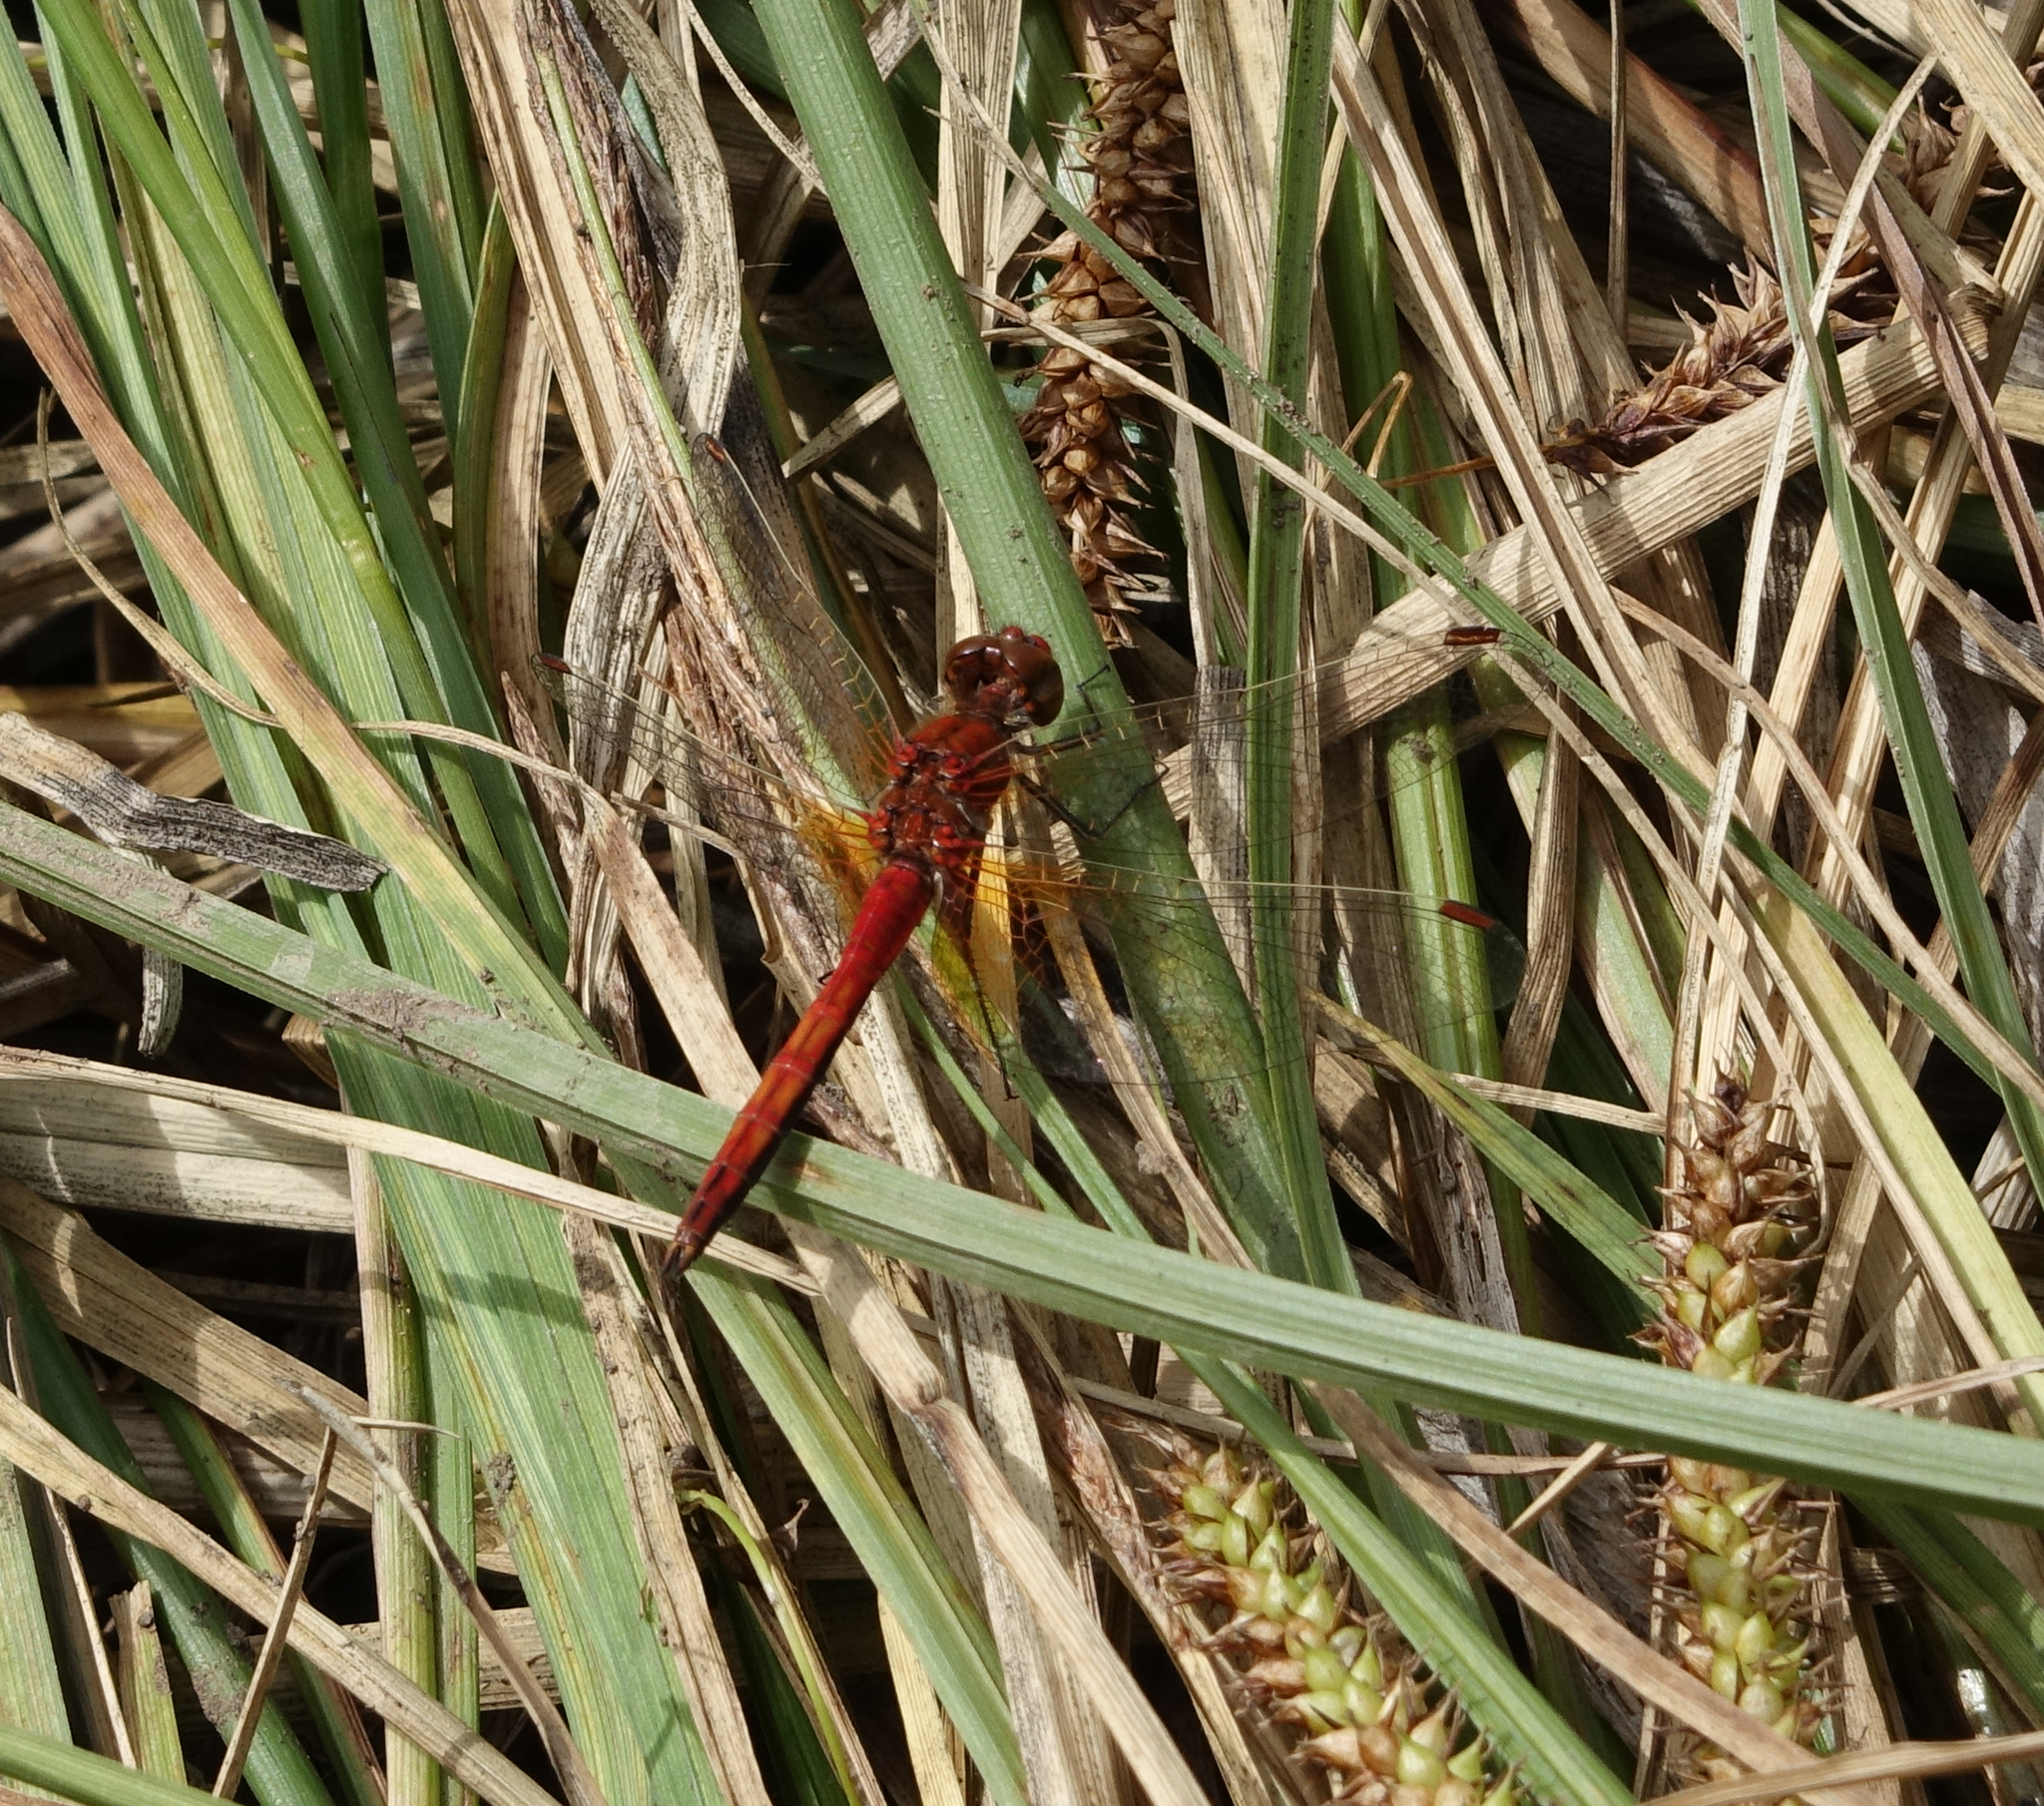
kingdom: Animalia
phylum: Arthropoda
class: Insecta
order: Odonata
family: Libellulidae
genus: Sympetrum
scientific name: Sympetrum flaveolum
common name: Yellow-winged darter
